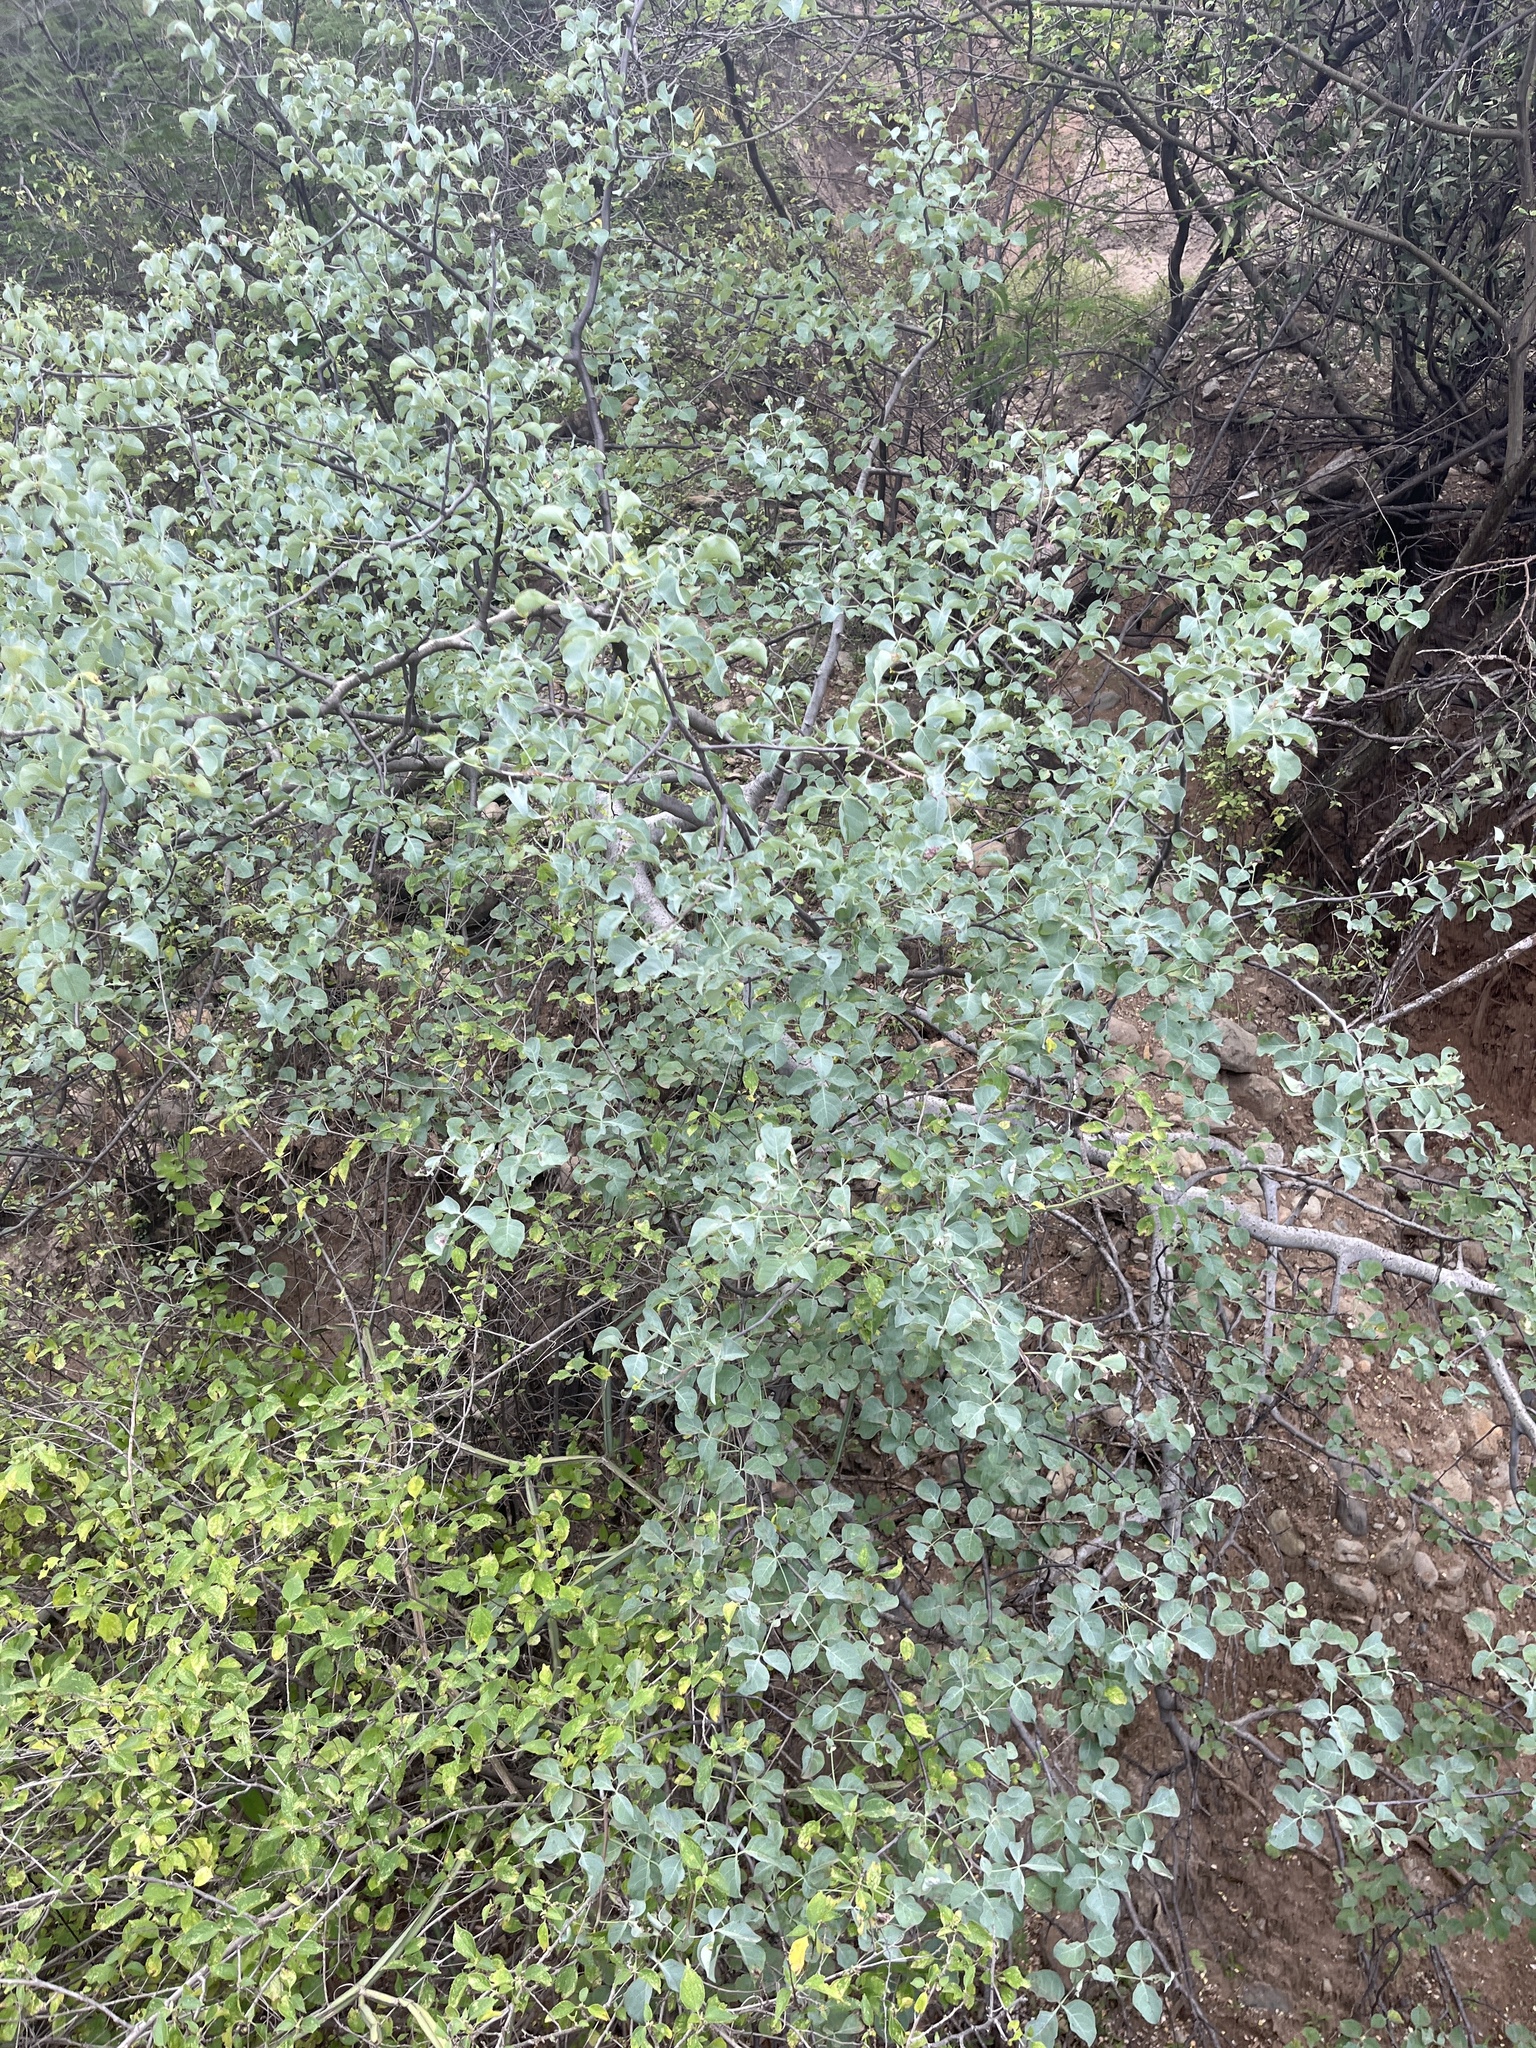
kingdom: Plantae
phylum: Tracheophyta
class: Magnoliopsida
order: Sapindales
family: Burseraceae
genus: Commiphora
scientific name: Commiphora campestris
